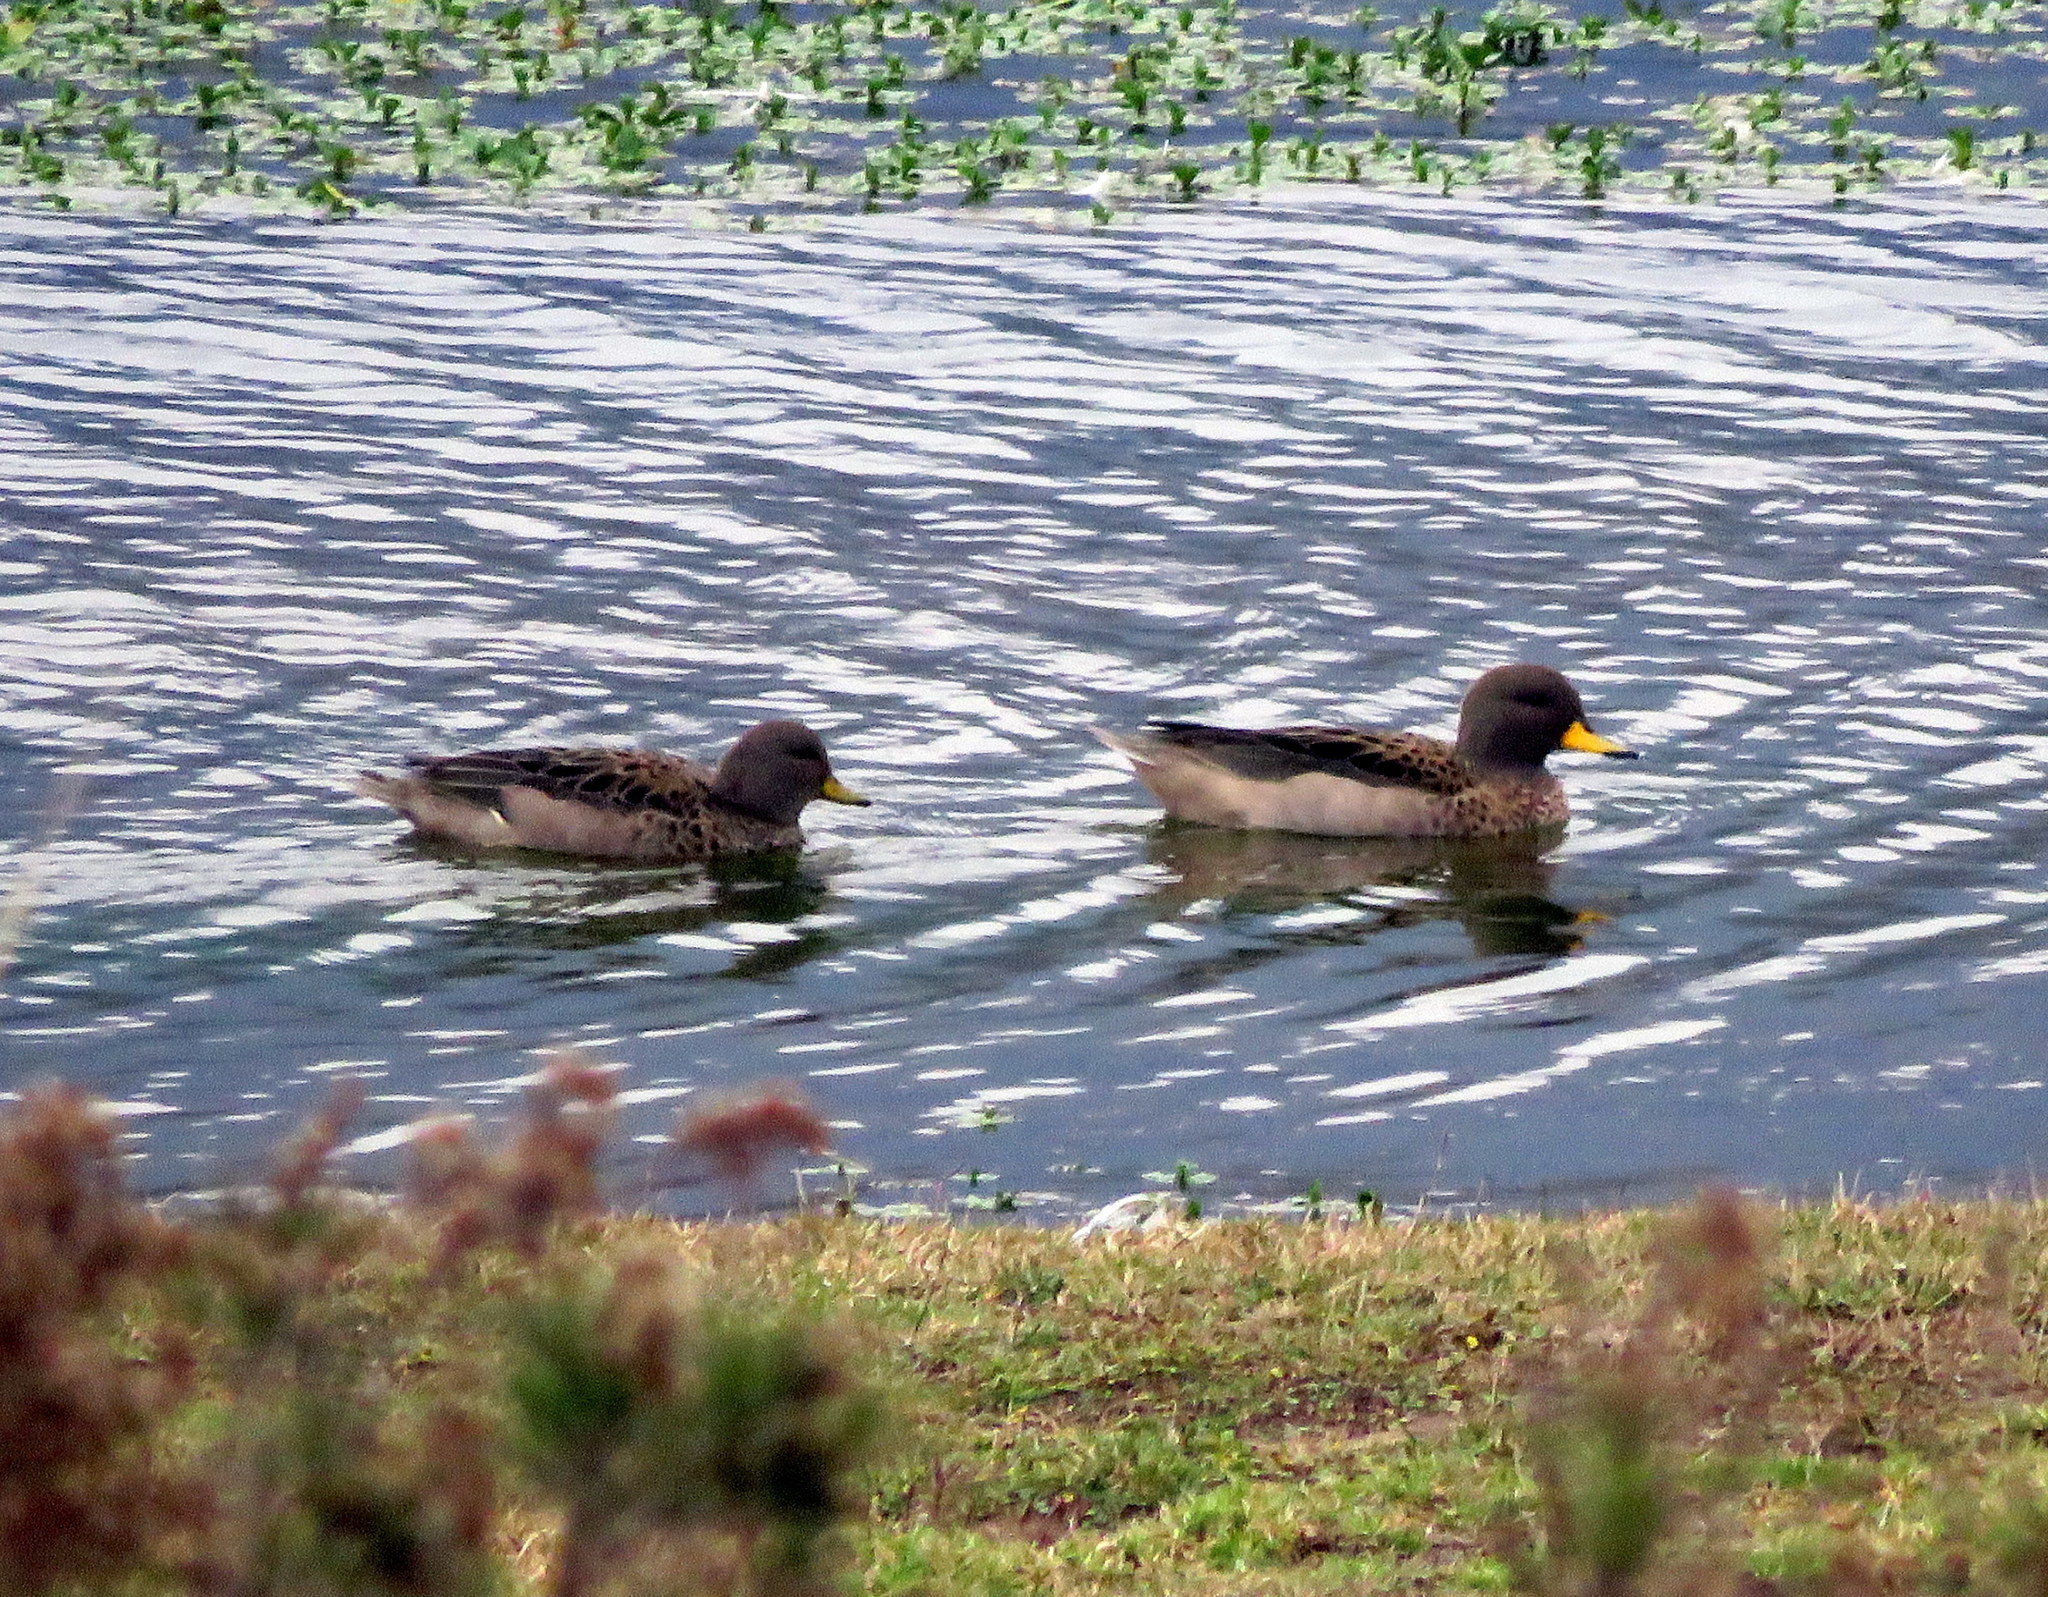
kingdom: Animalia
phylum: Chordata
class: Aves
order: Anseriformes
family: Anatidae
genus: Anas
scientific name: Anas flavirostris
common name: Yellow-billed teal
